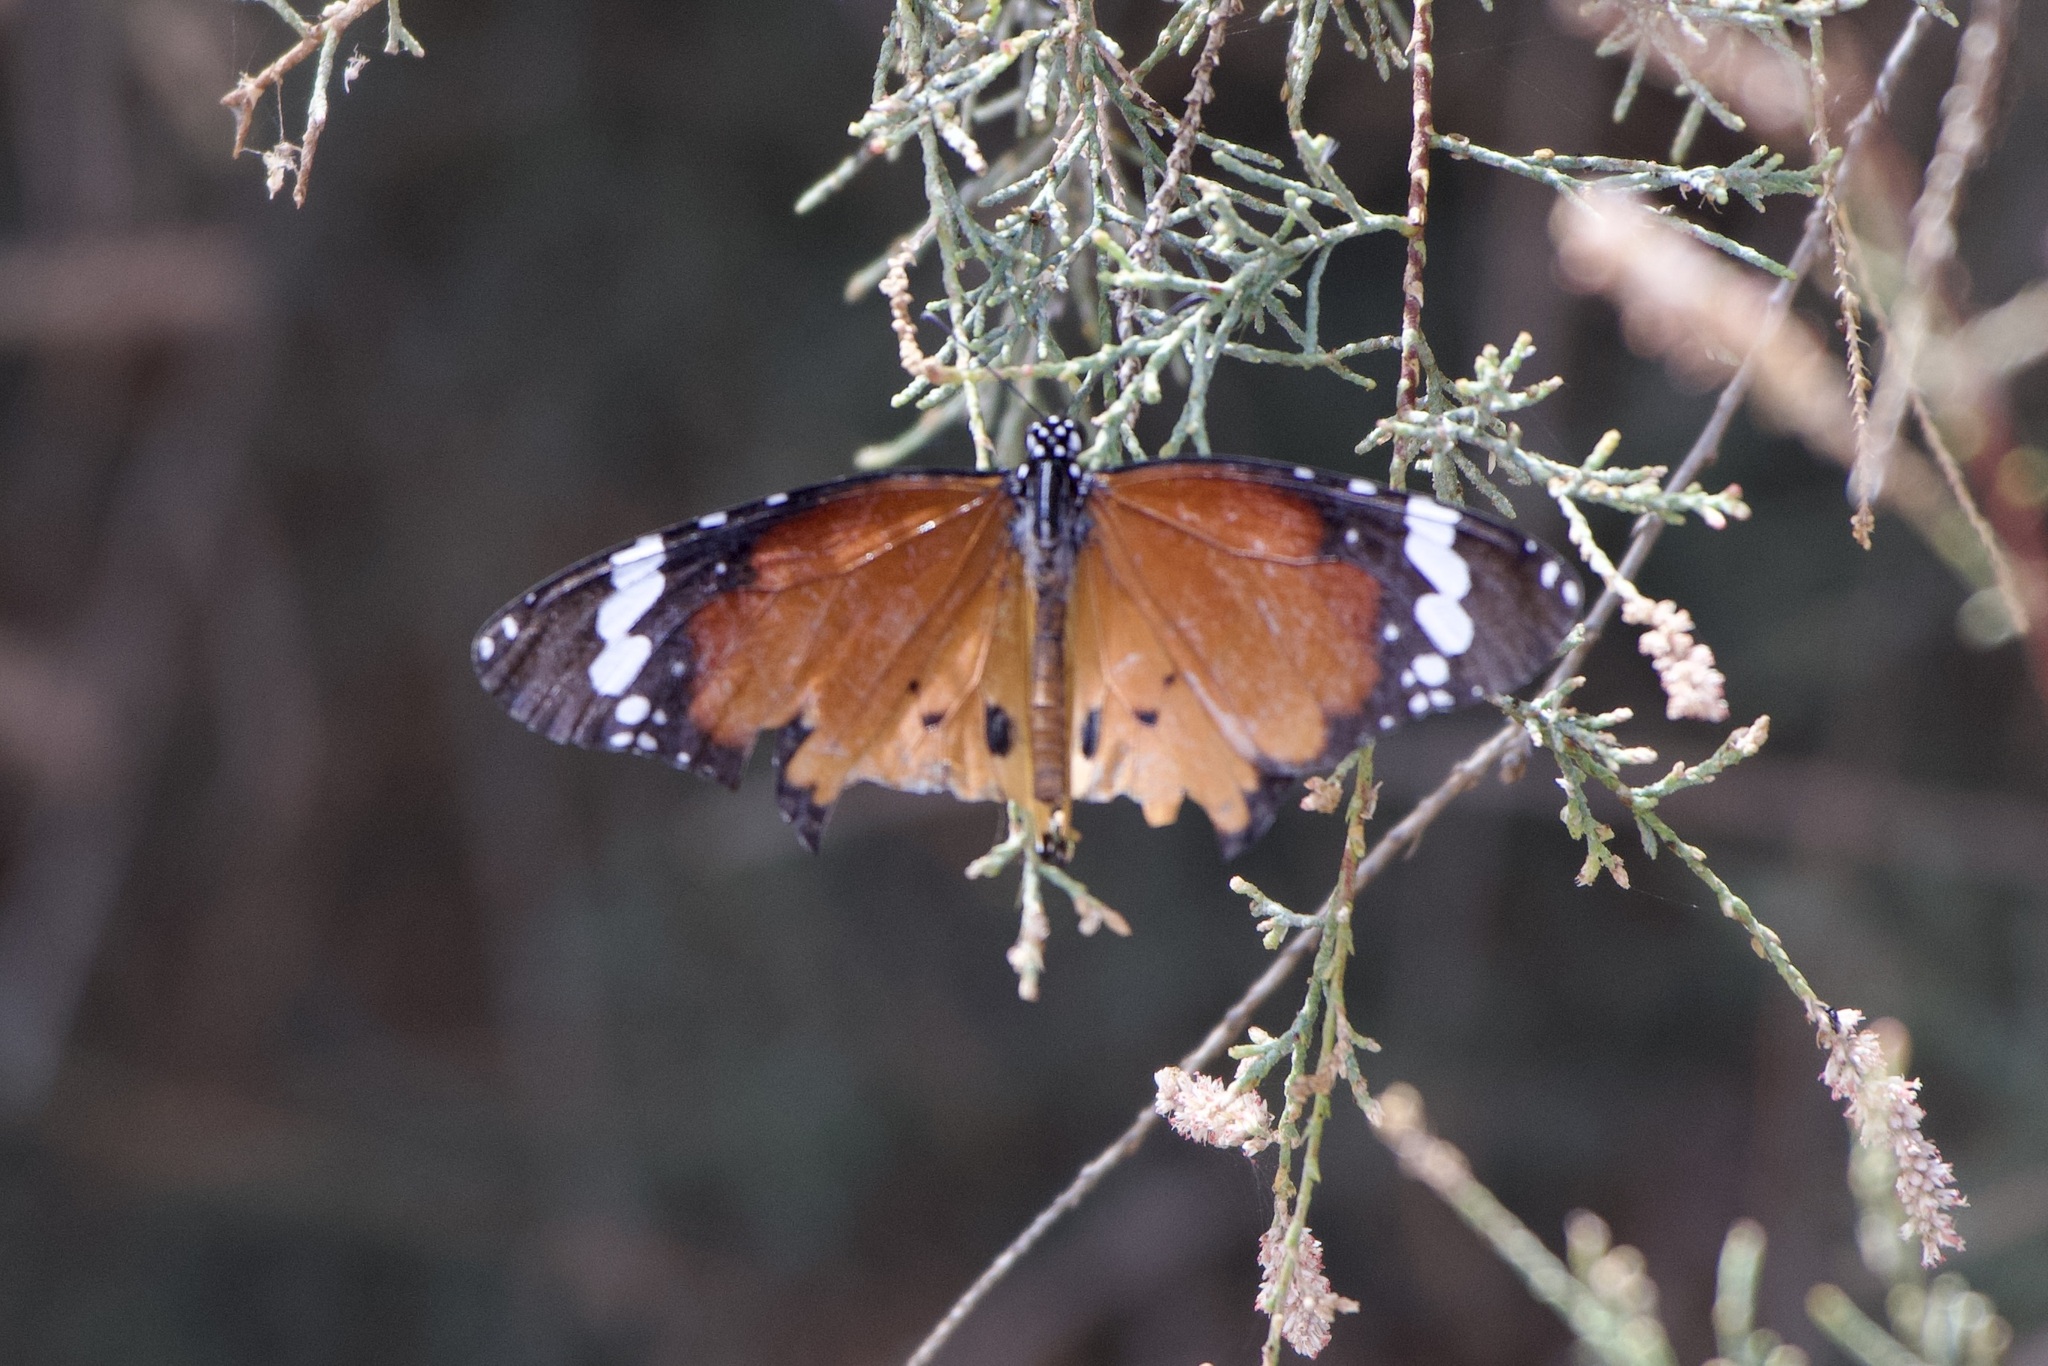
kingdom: Animalia
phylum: Arthropoda
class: Insecta
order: Lepidoptera
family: Nymphalidae
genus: Danaus
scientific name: Danaus chrysippus
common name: Plain tiger
